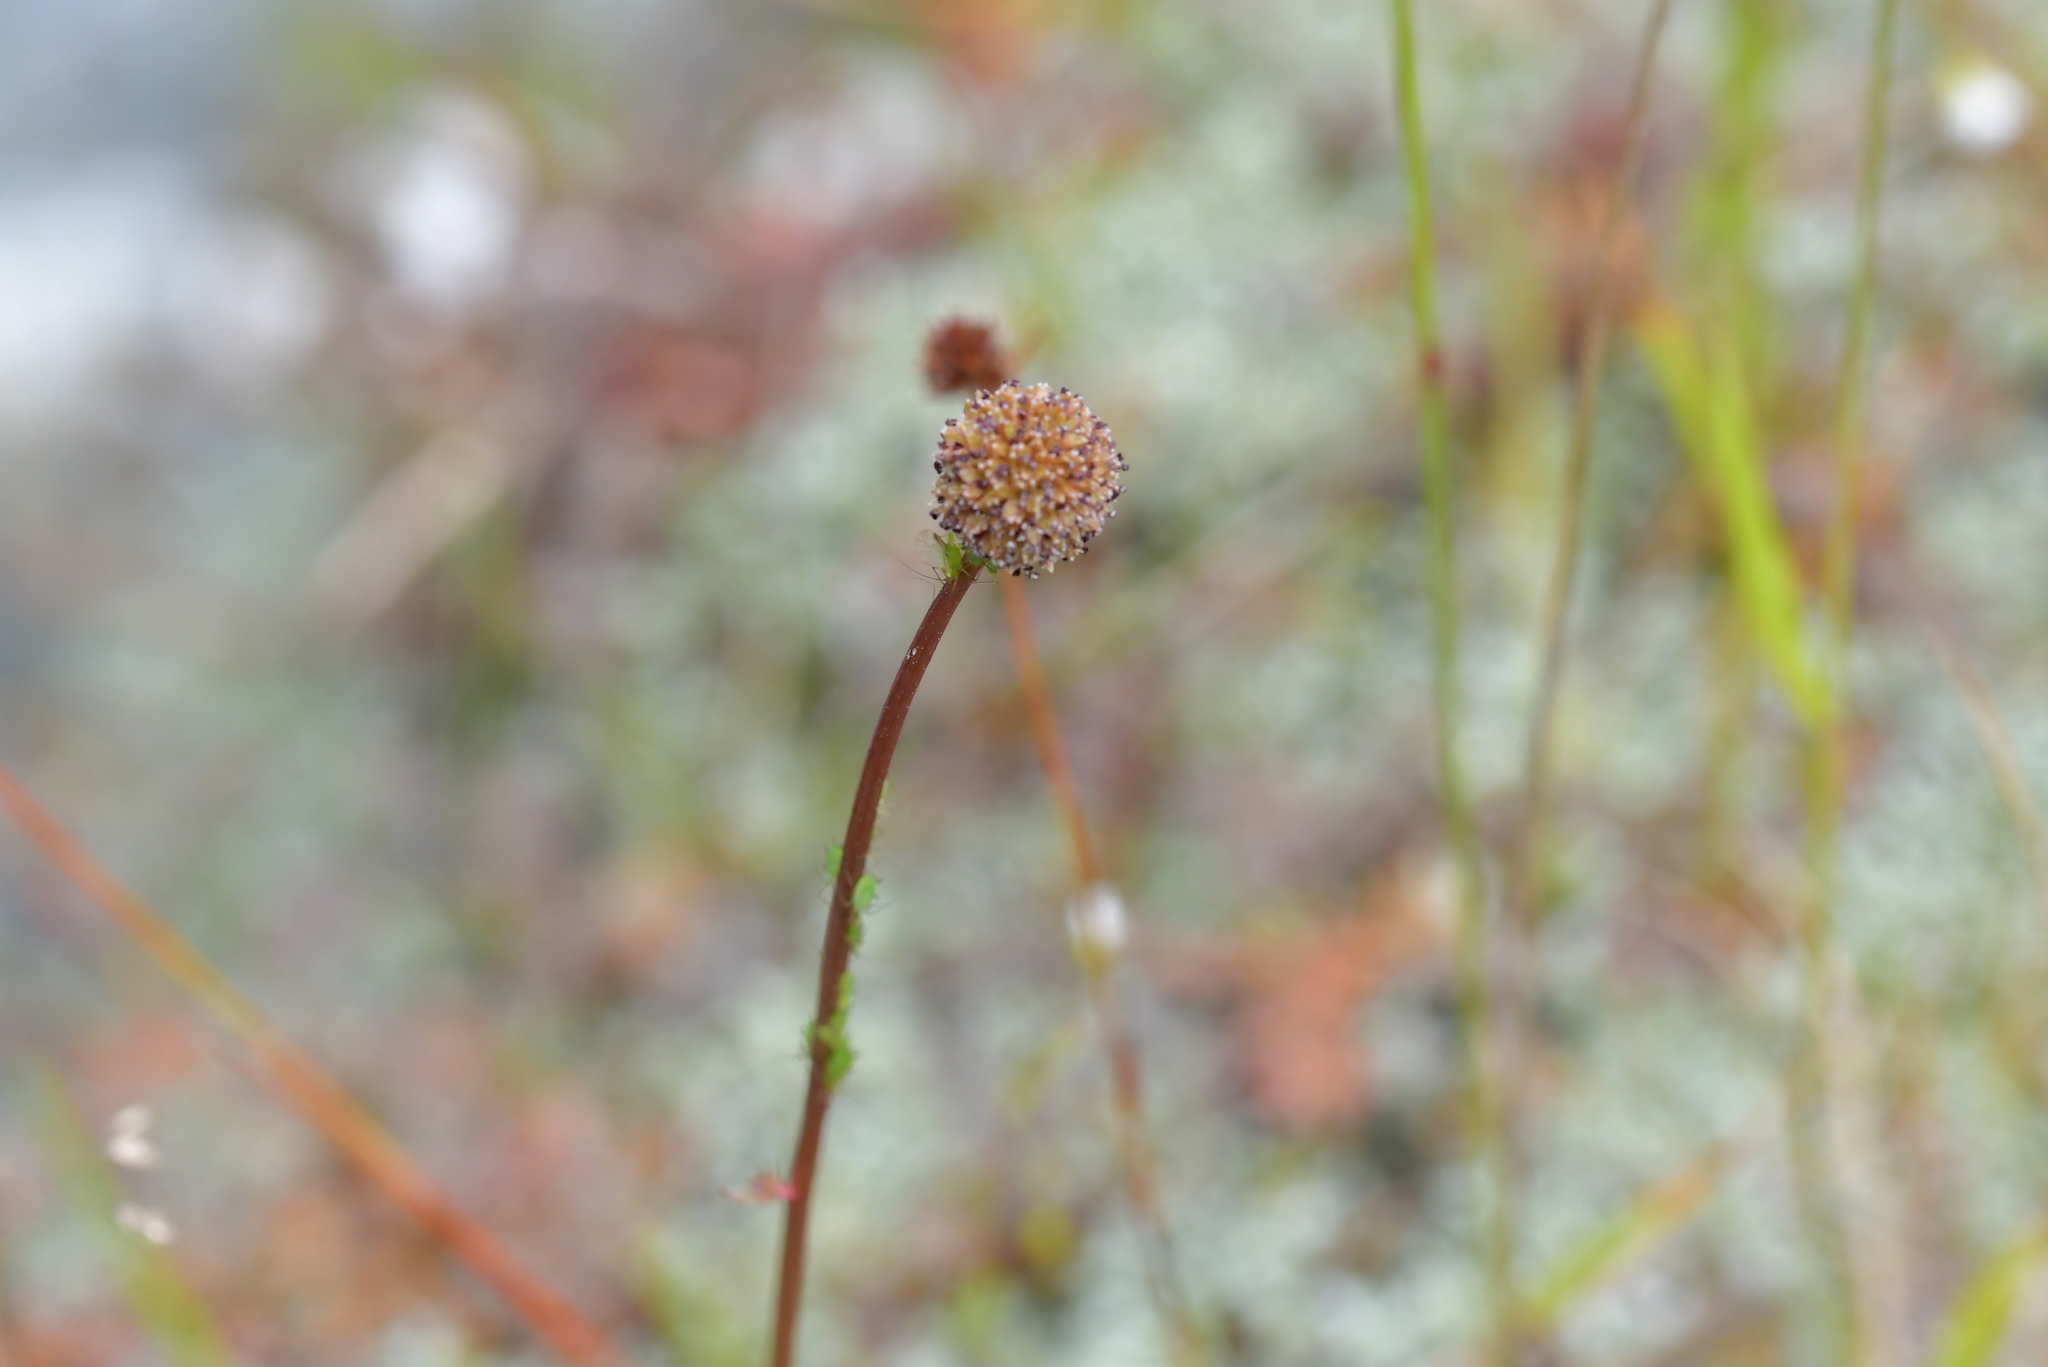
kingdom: Plantae
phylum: Tracheophyta
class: Magnoliopsida
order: Rosales
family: Rosaceae
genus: Acaena
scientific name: Acaena saccaticupula
